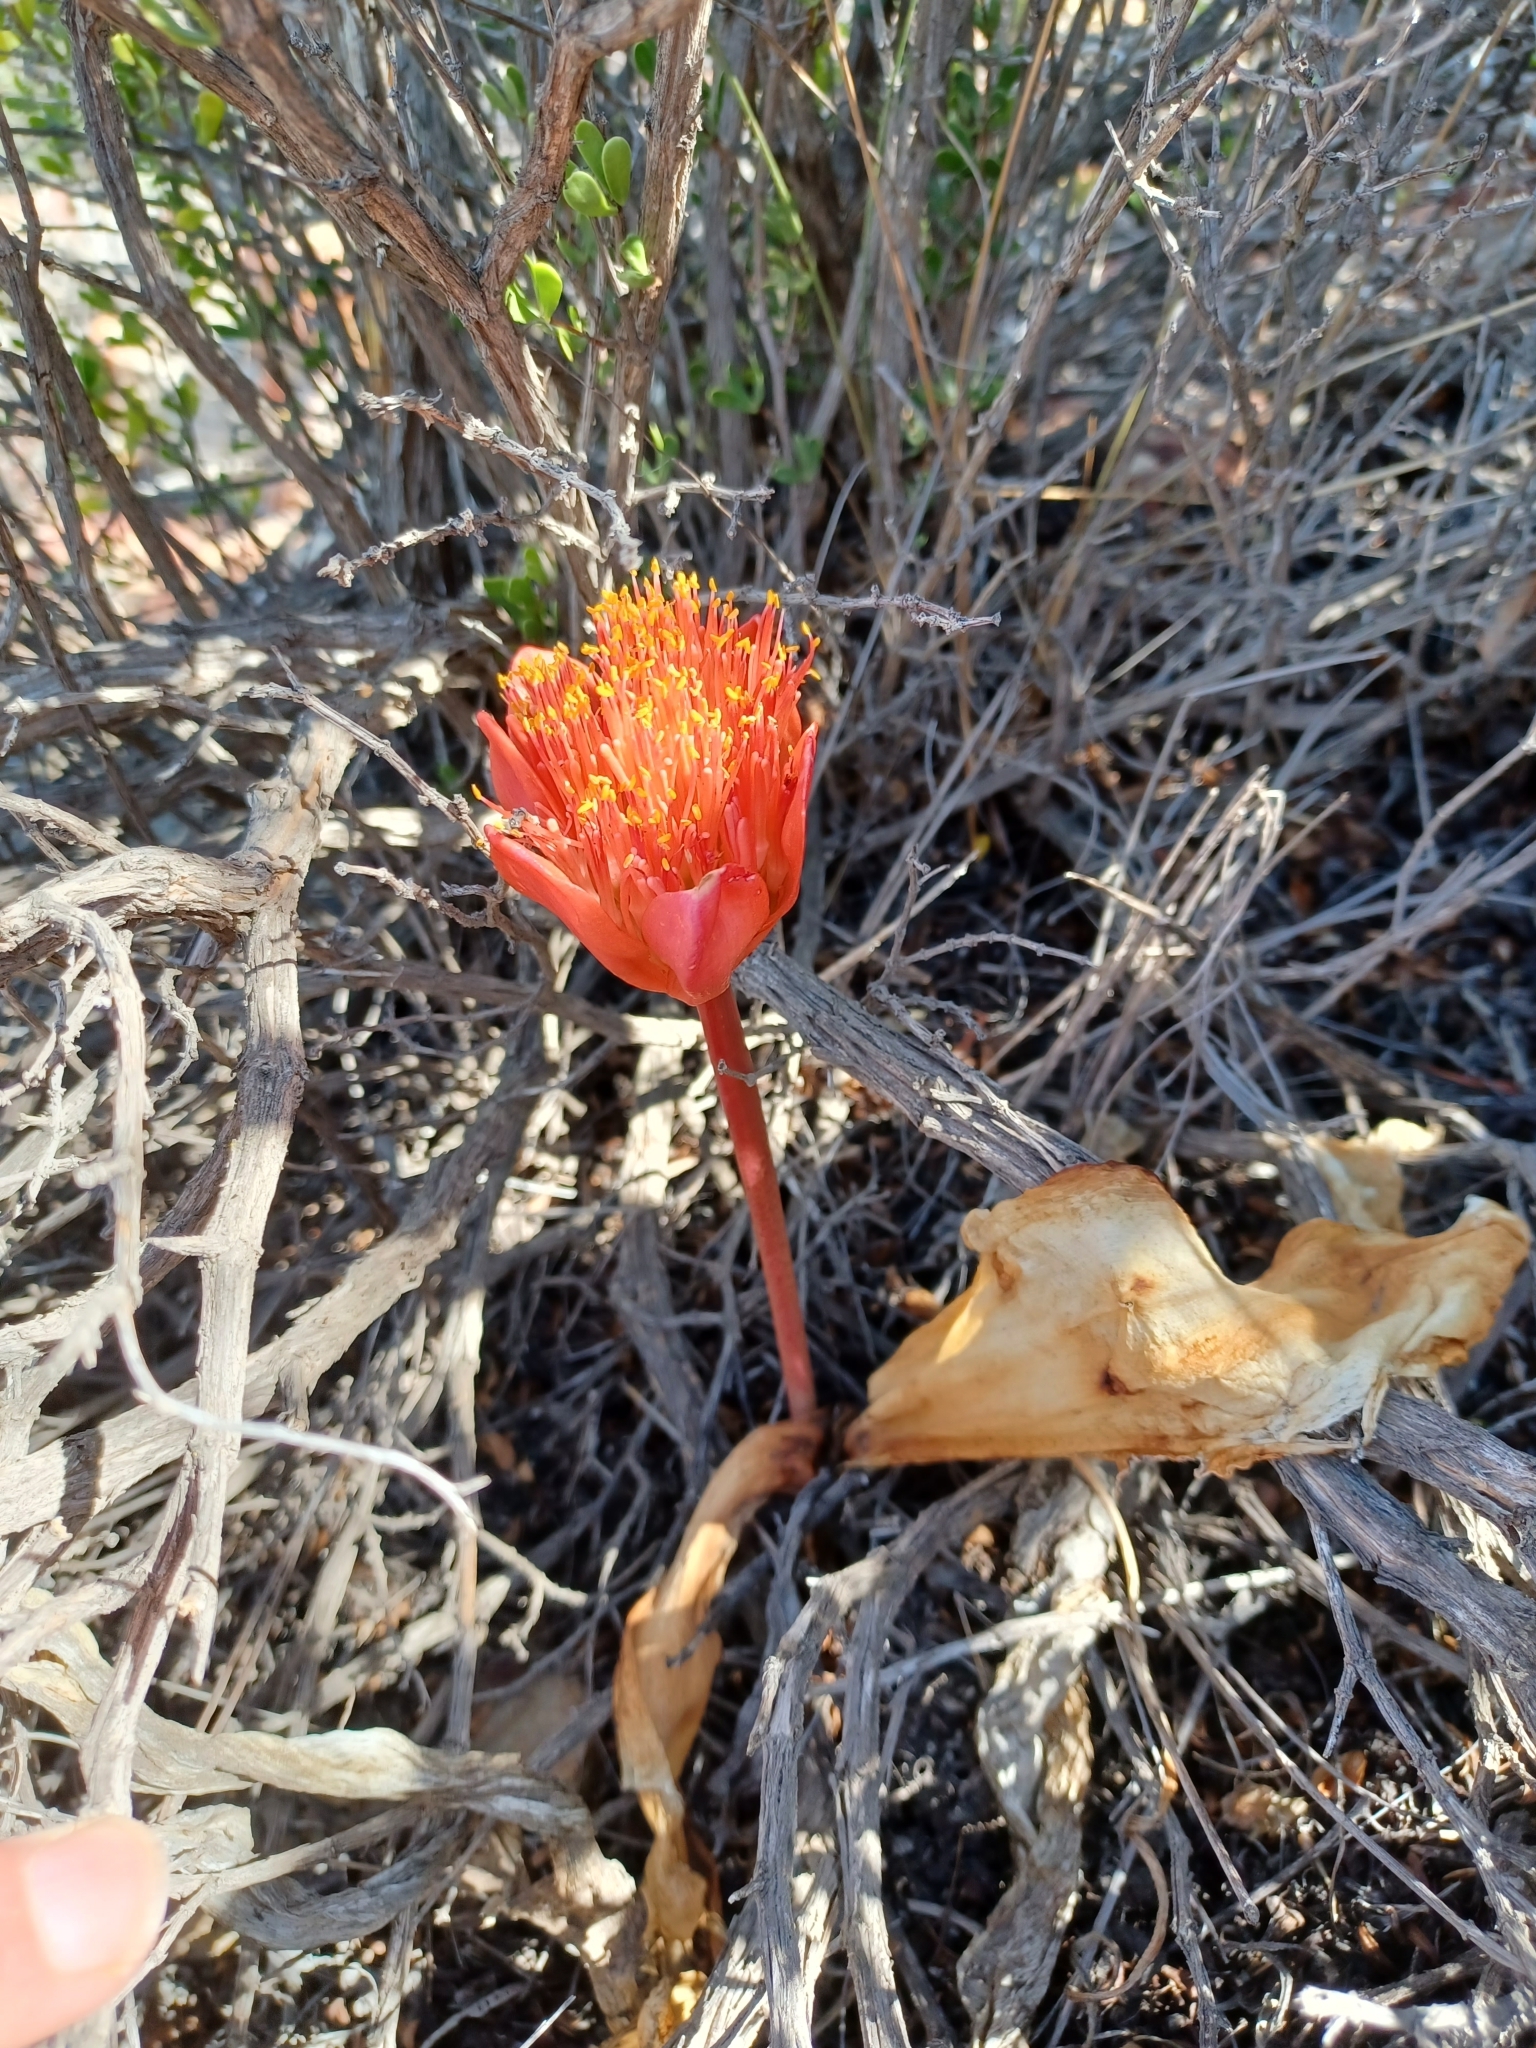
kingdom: Plantae
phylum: Tracheophyta
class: Liliopsida
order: Asparagales
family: Amaryllidaceae
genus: Haemanthus
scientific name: Haemanthus coccineus
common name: Cape-tulip
